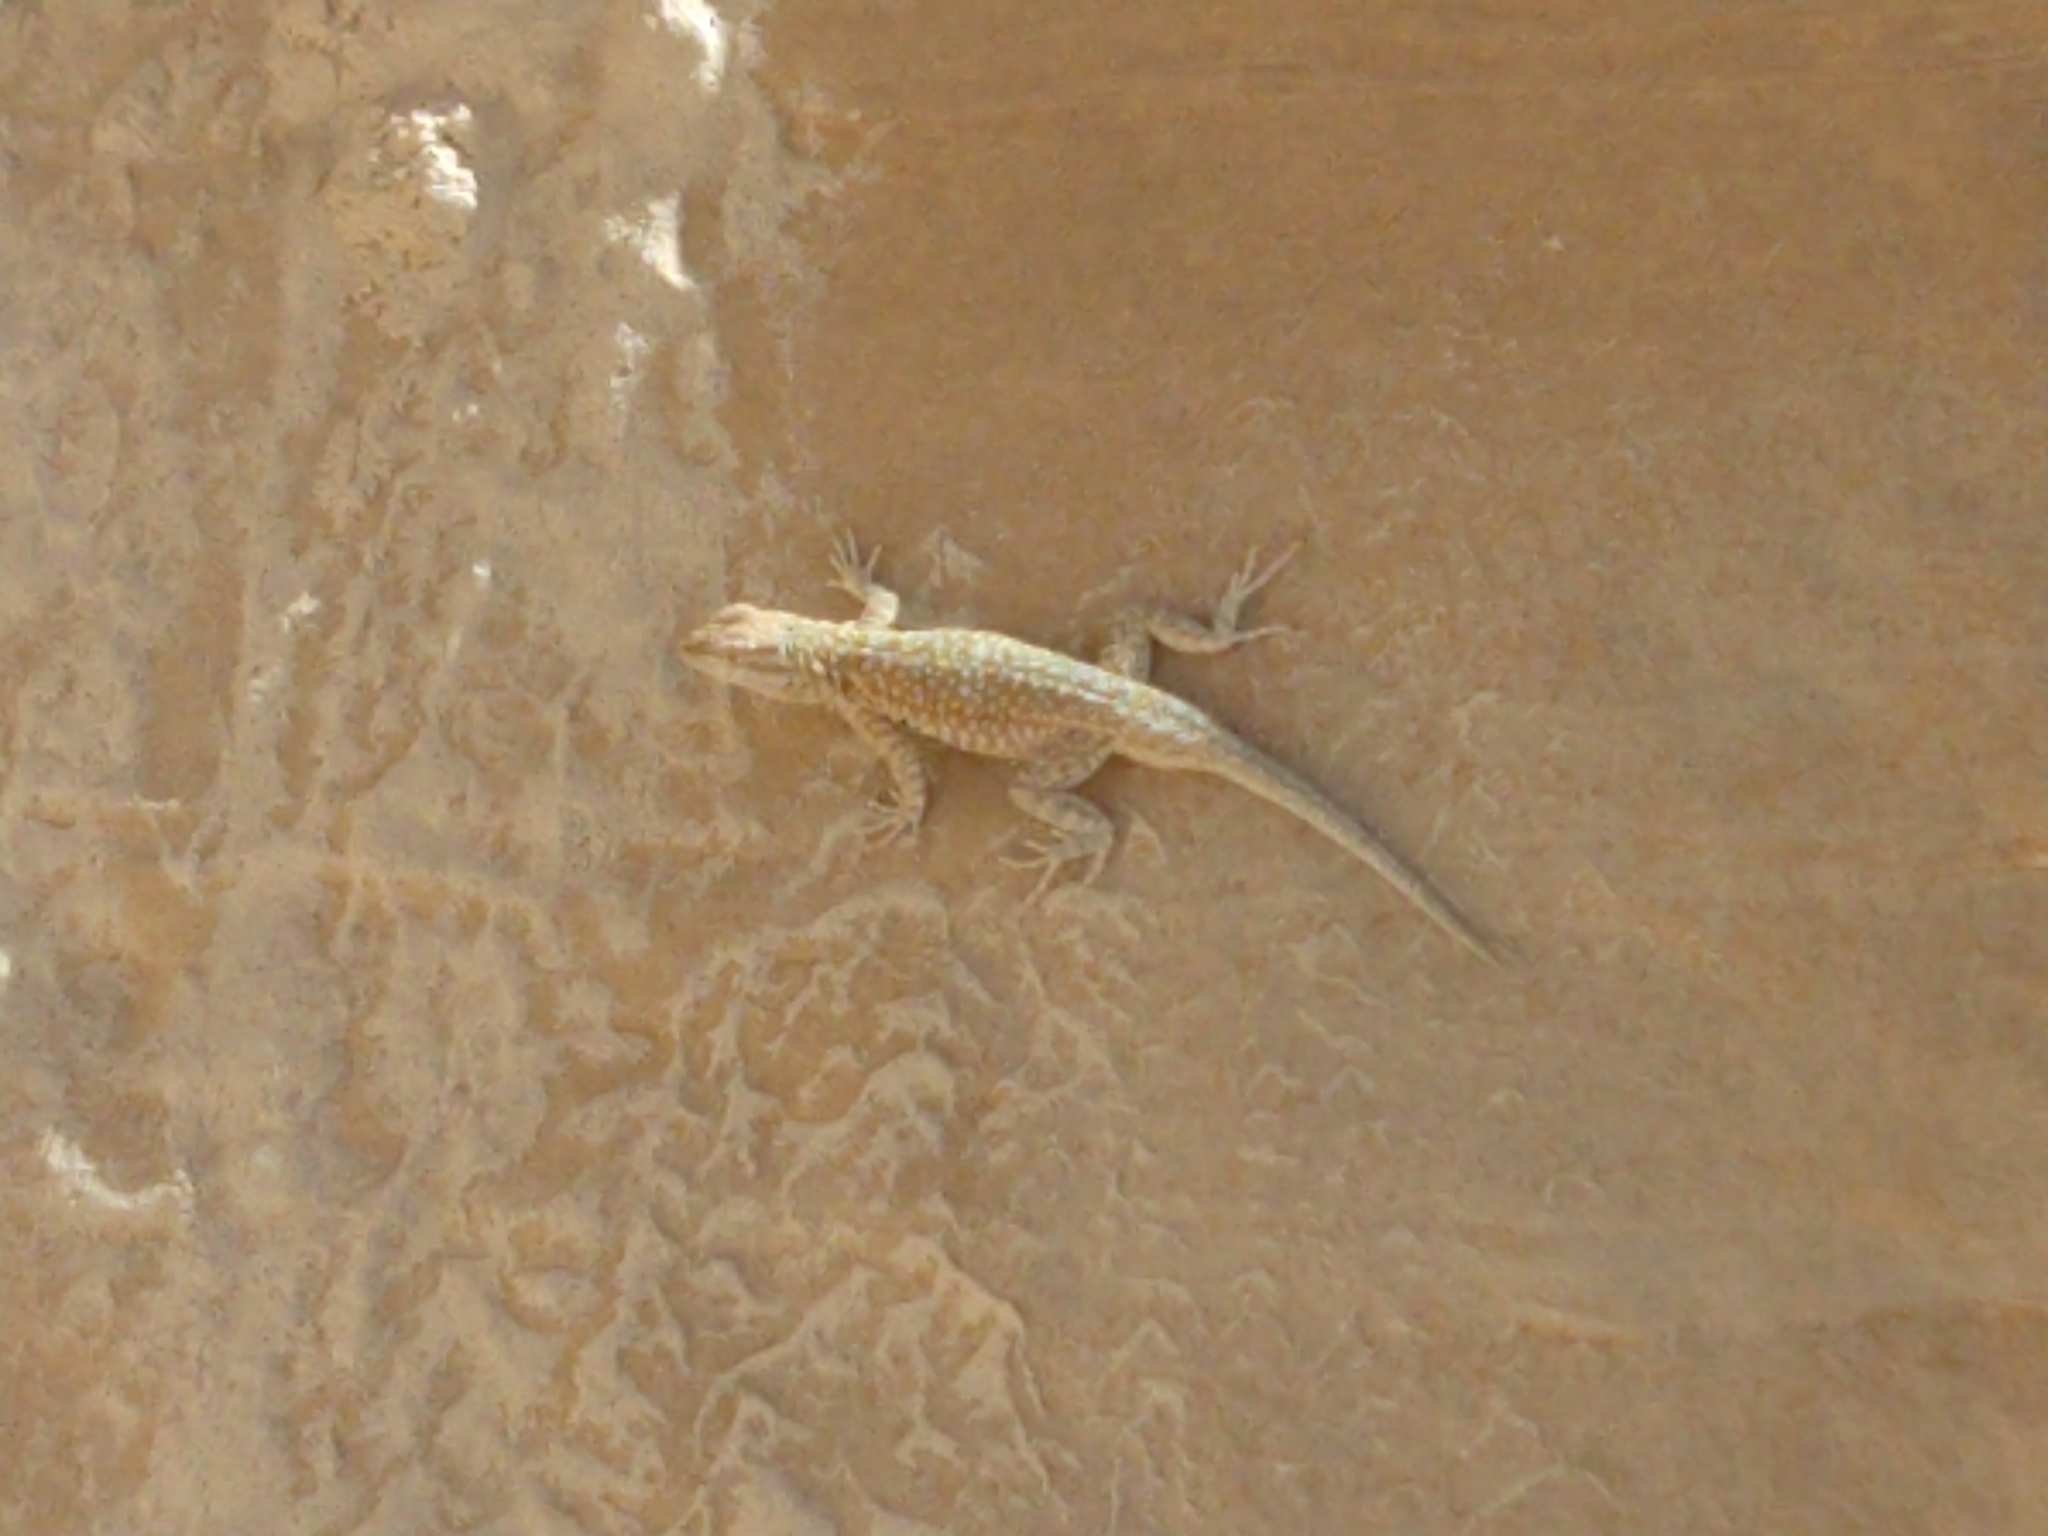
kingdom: Animalia
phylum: Chordata
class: Squamata
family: Phrynosomatidae
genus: Uta
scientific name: Uta stansburiana
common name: Side-blotched lizard
